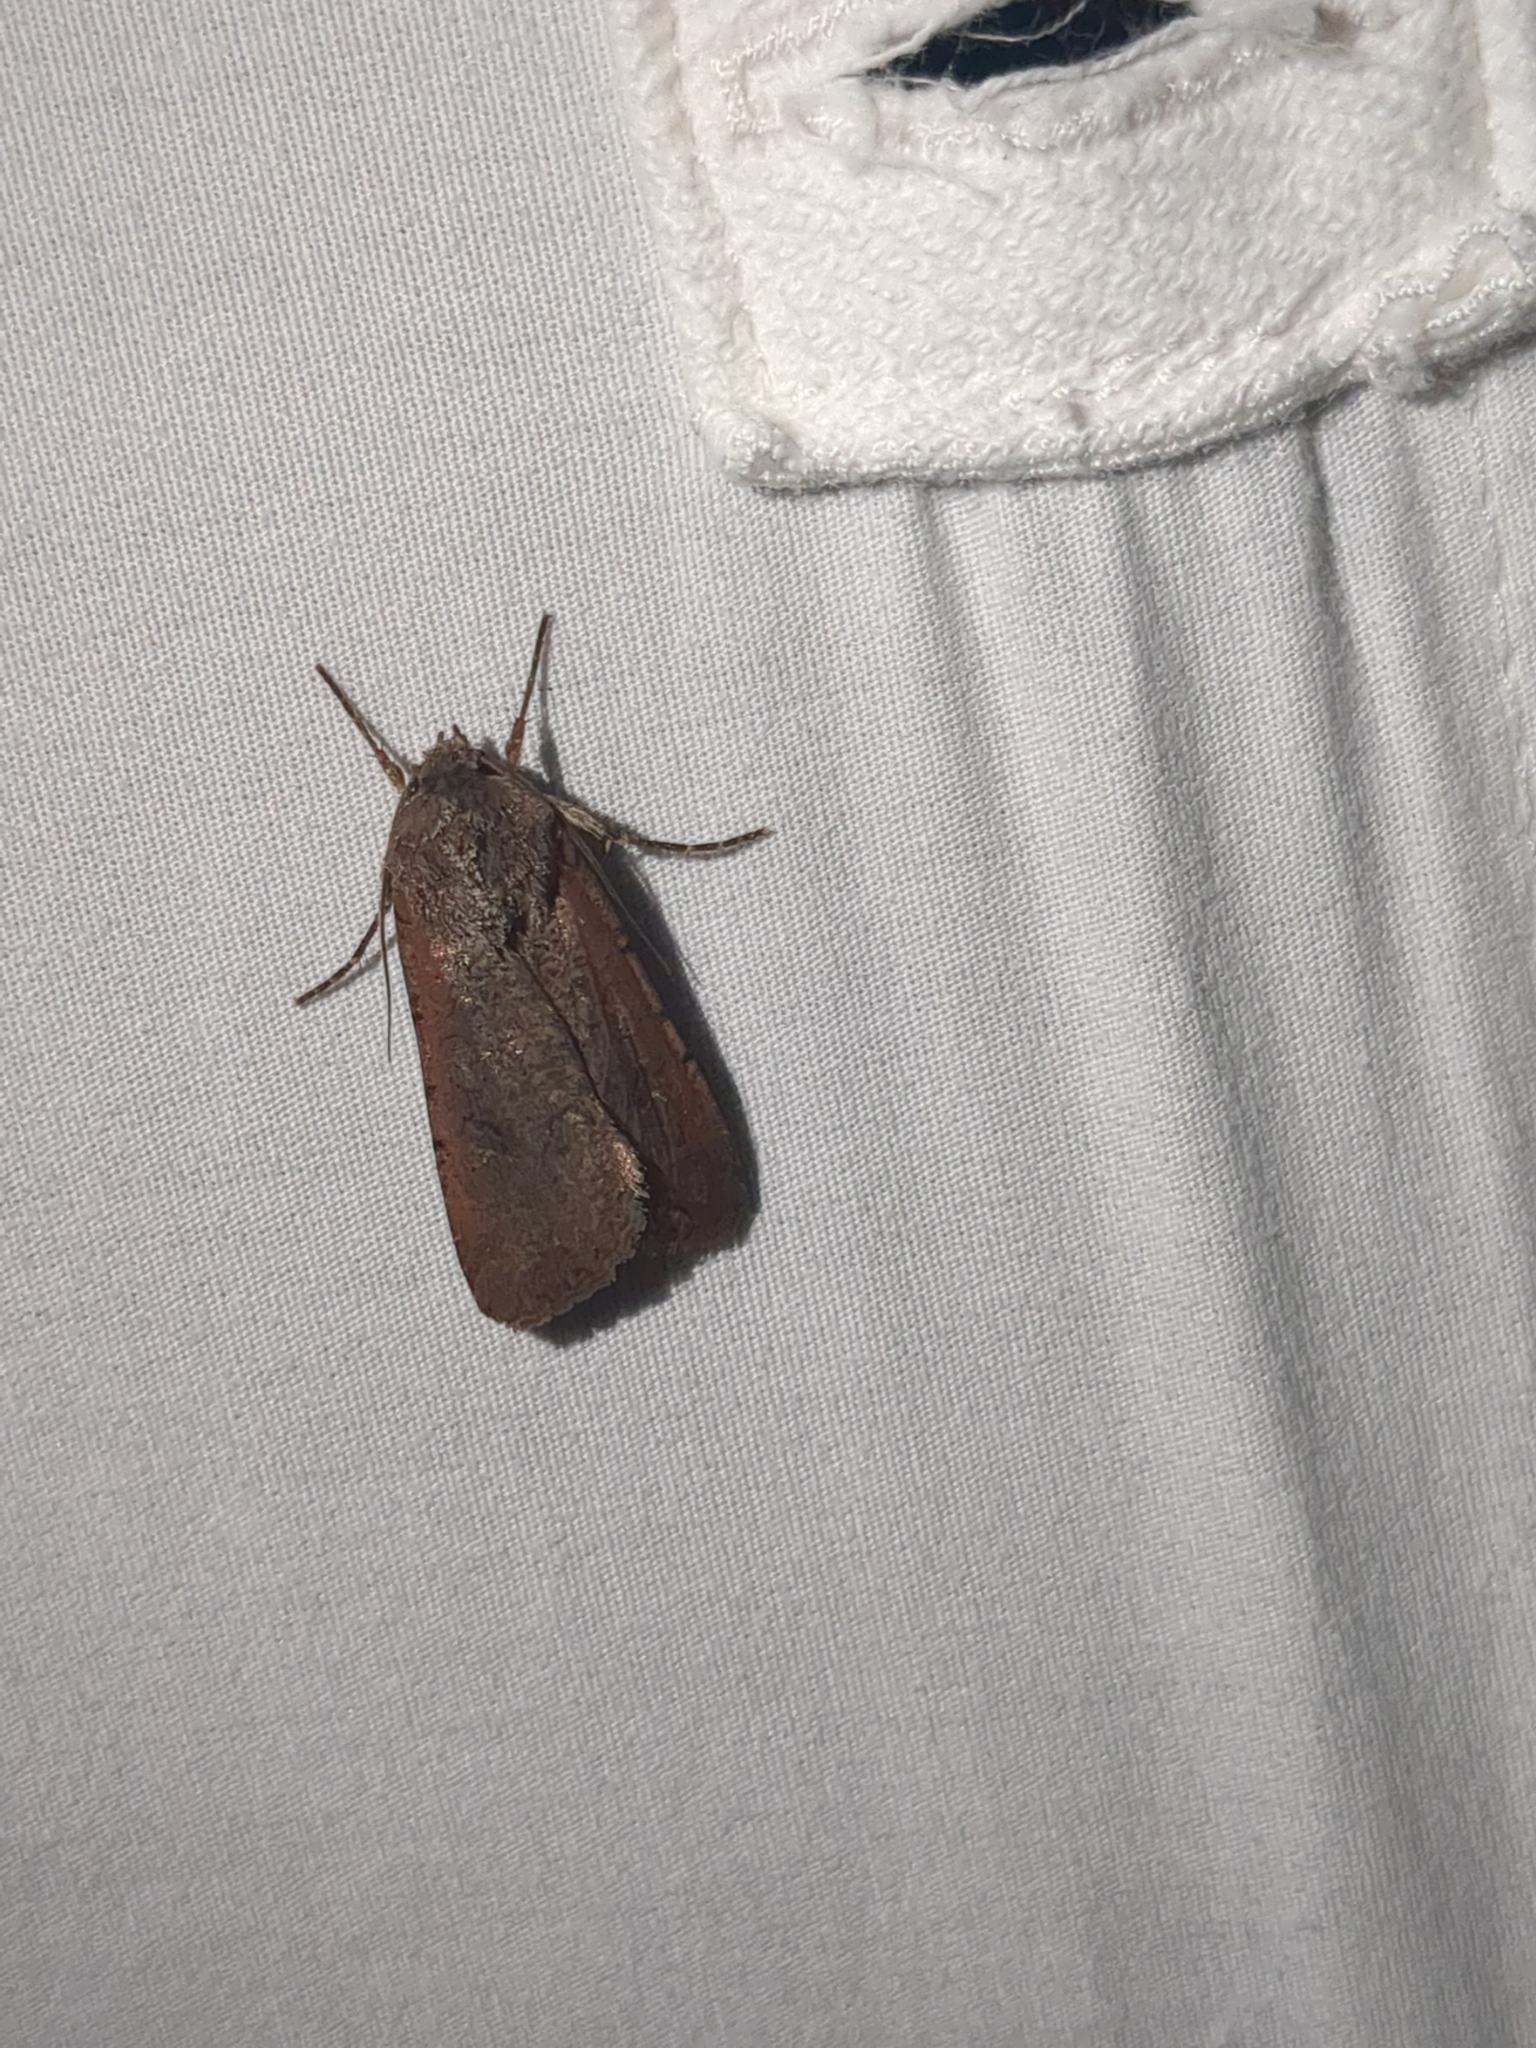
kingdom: Animalia
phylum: Arthropoda
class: Insecta
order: Lepidoptera
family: Noctuidae
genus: Peridroma
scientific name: Peridroma saucia
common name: Pearly underwing
